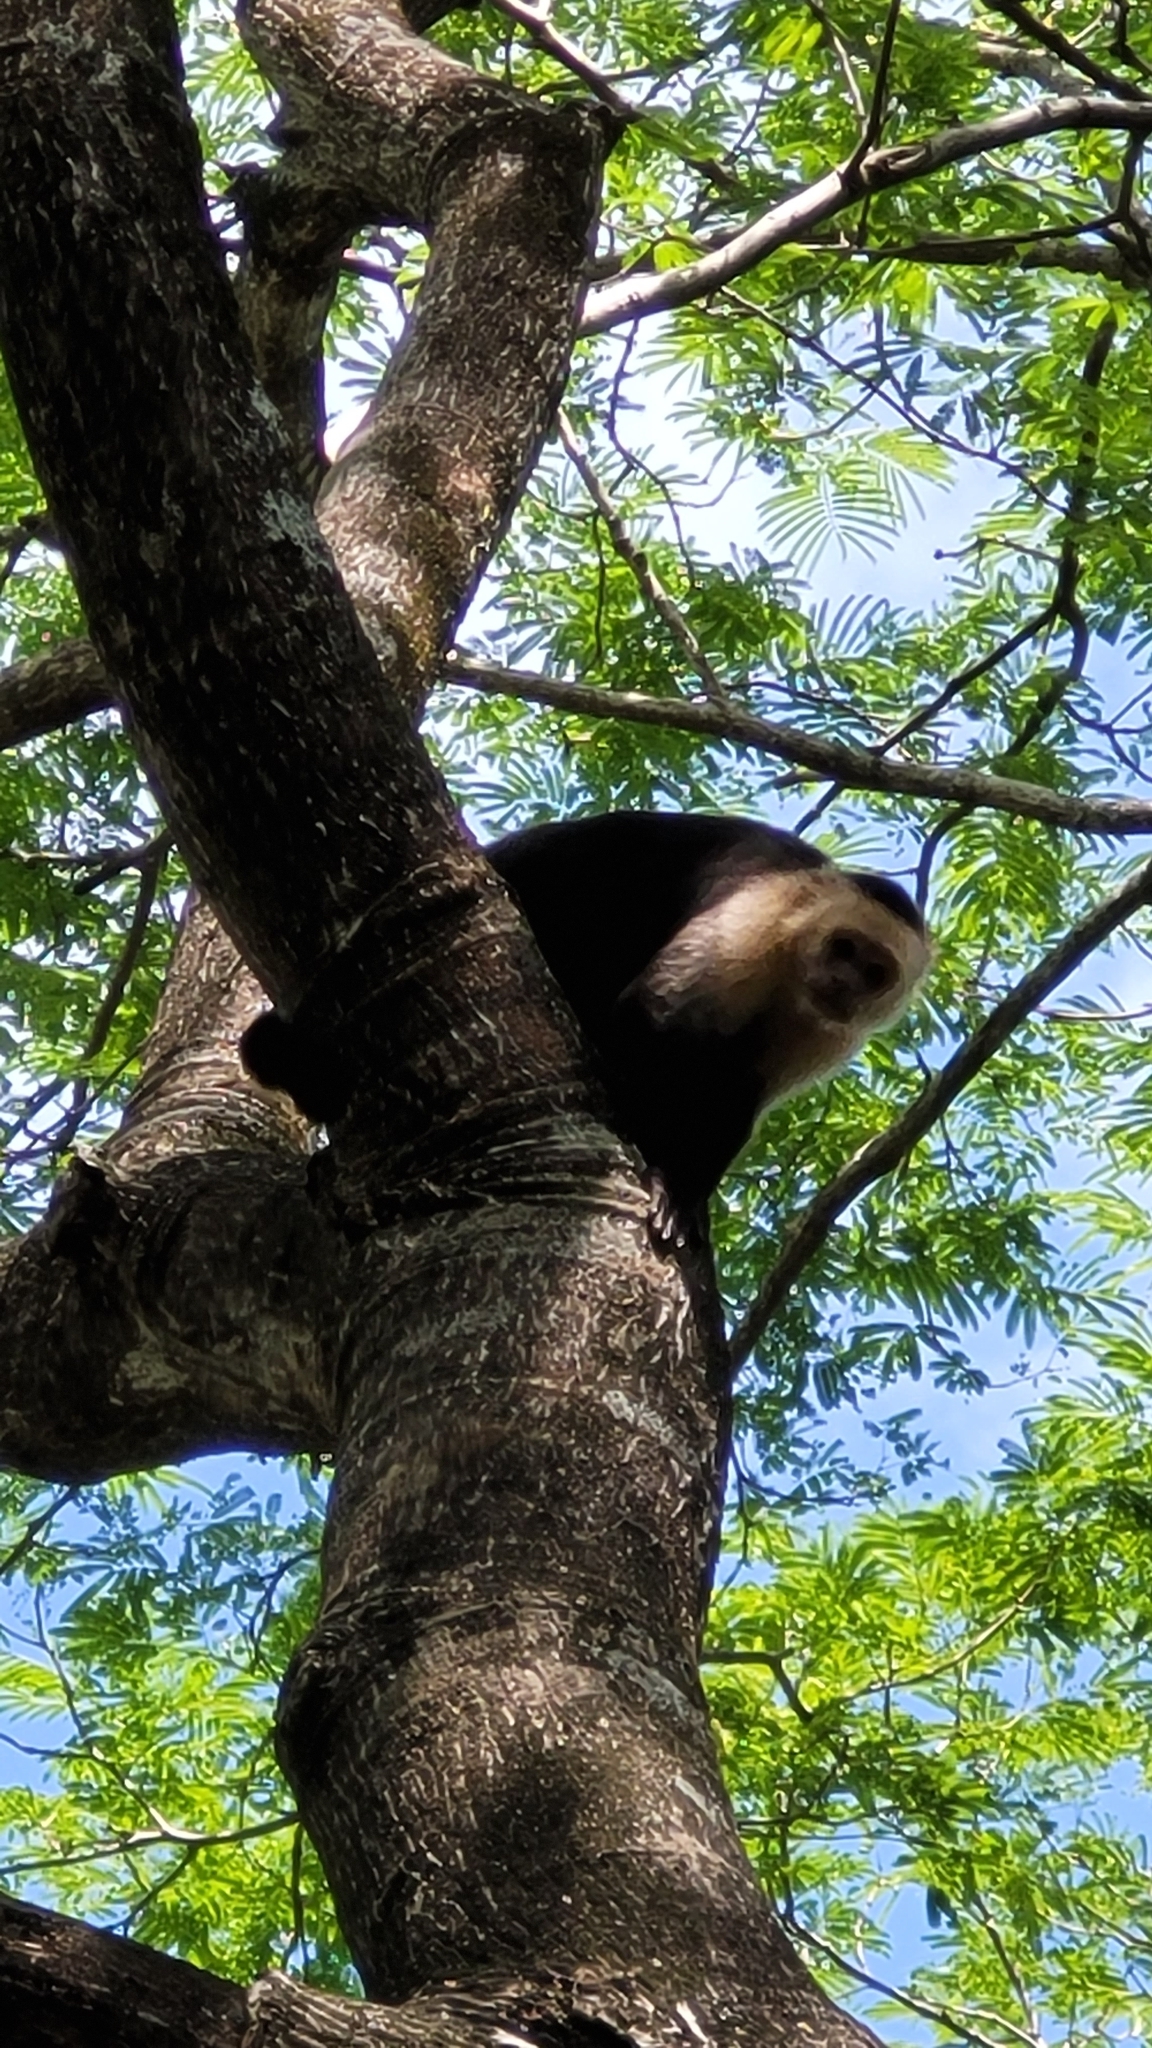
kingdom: Animalia
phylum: Chordata
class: Mammalia
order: Primates
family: Cebidae
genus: Cebus
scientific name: Cebus imitator
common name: Panamanian white-faced capuchin
